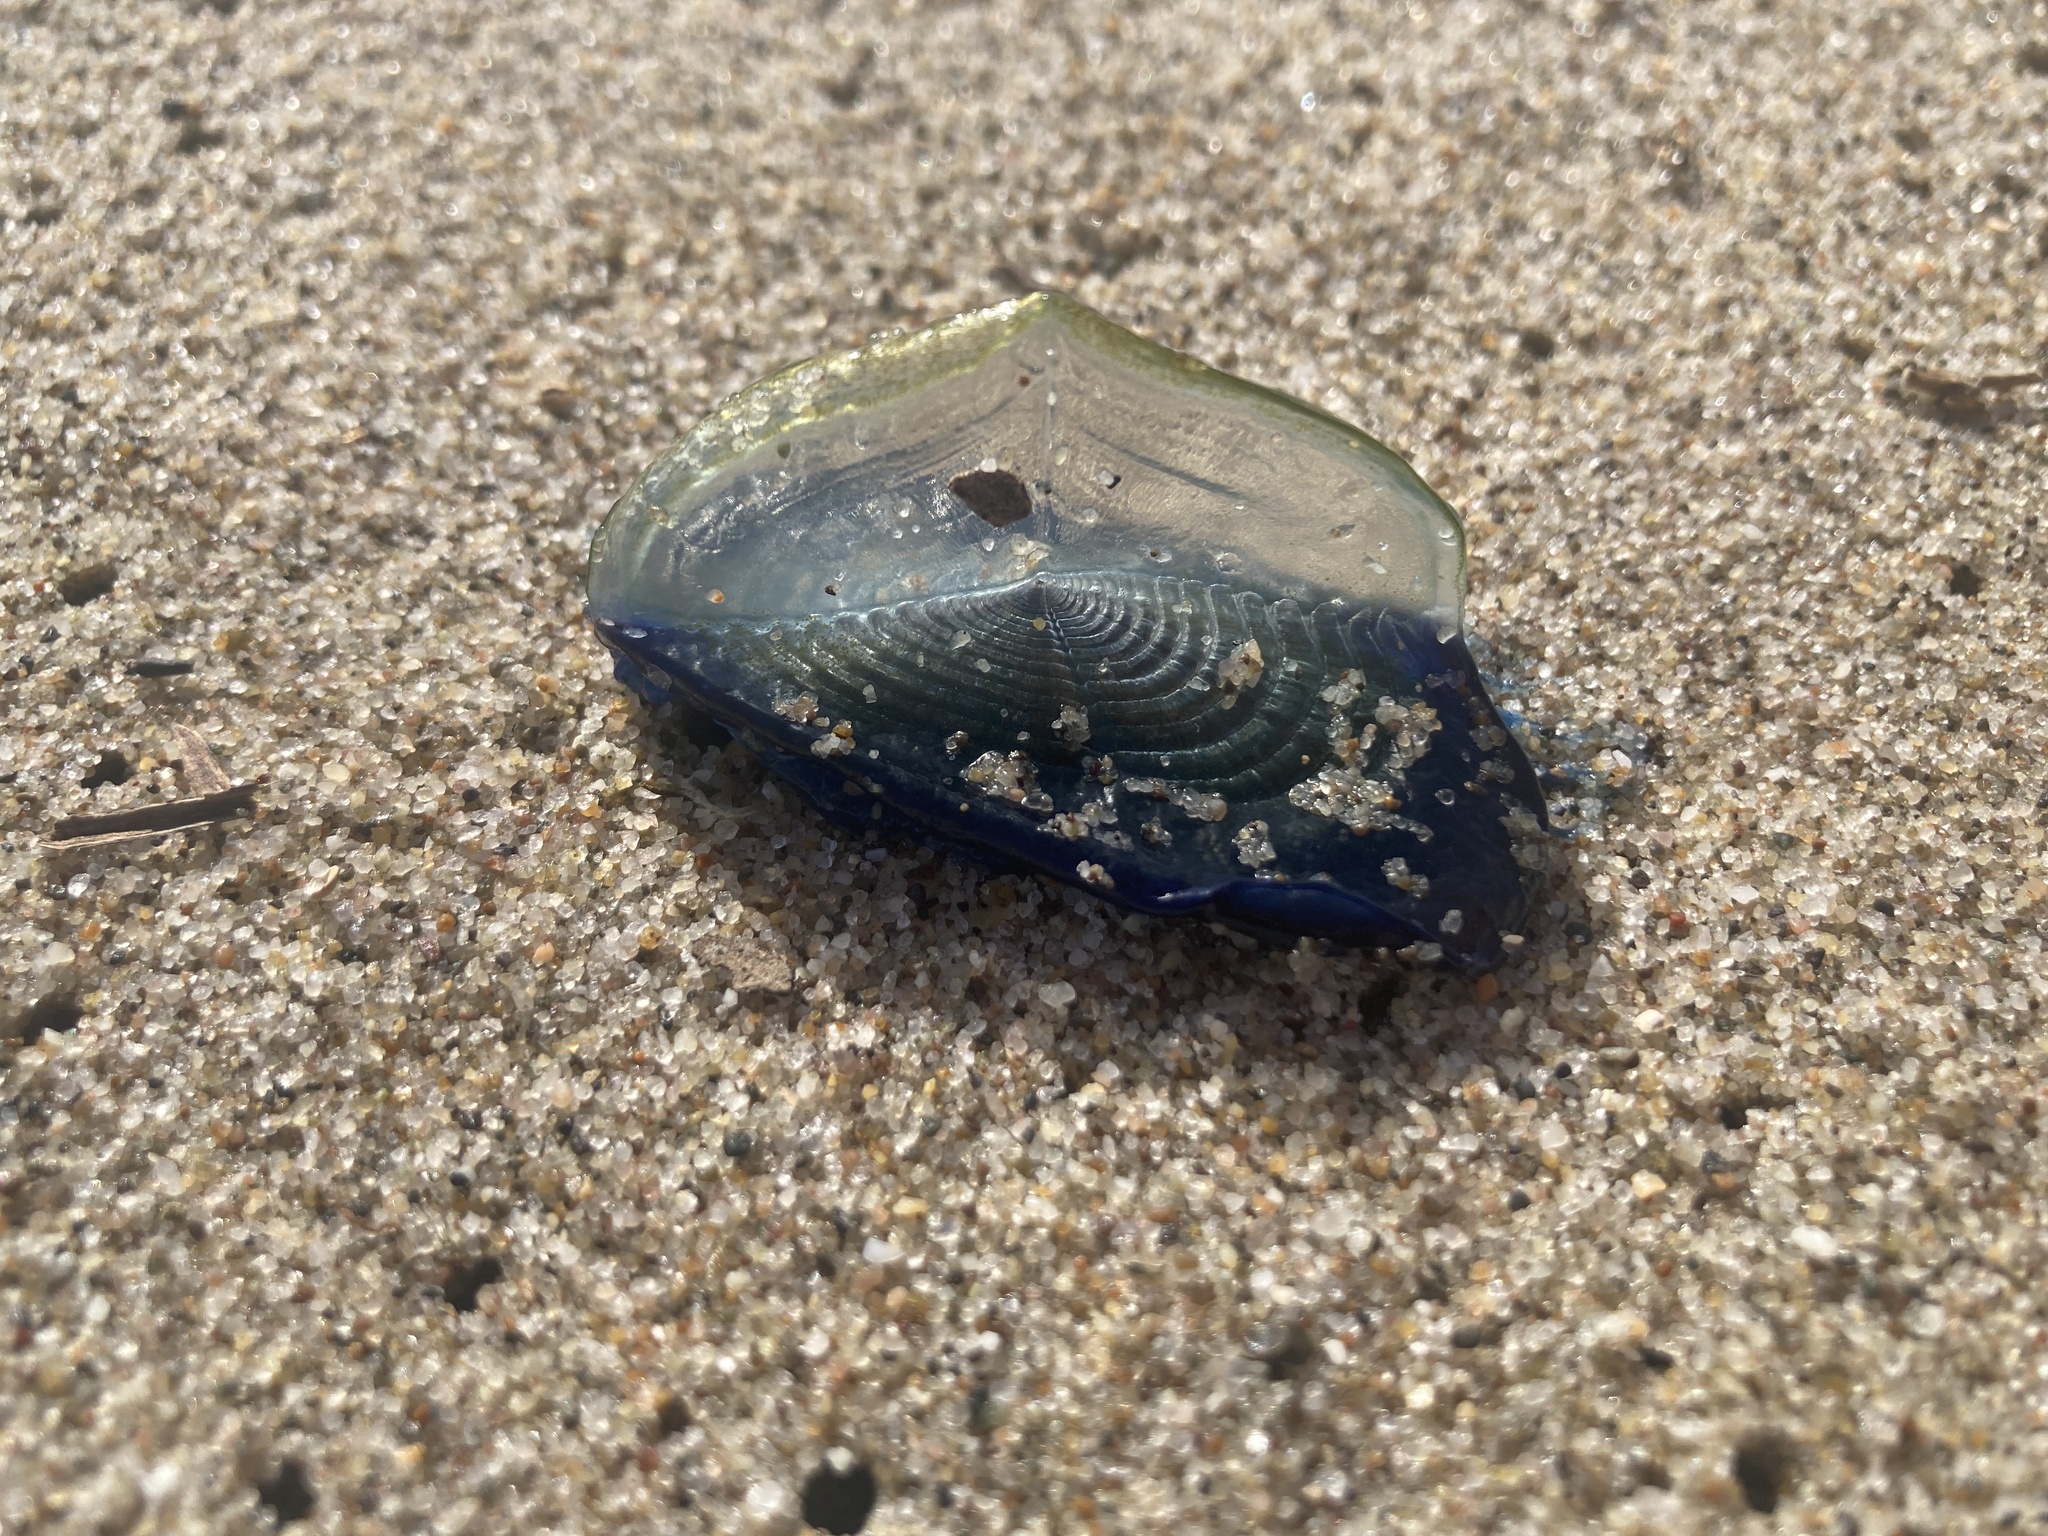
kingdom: Animalia
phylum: Cnidaria
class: Hydrozoa
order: Anthoathecata
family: Porpitidae
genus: Velella
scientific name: Velella velella
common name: By-the-wind-sailor
